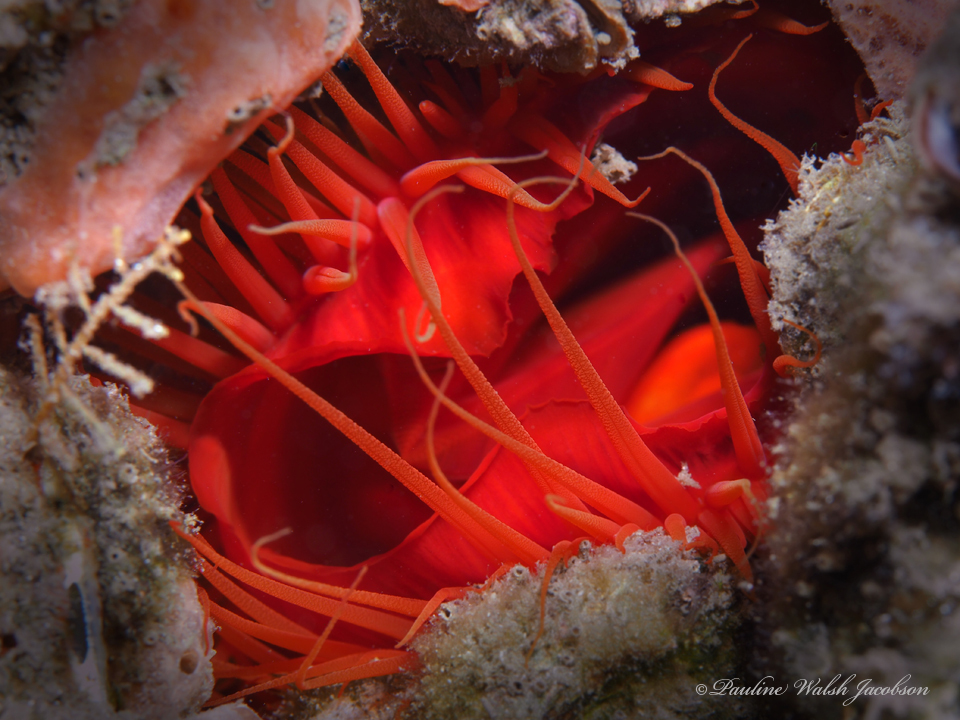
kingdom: Animalia
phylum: Mollusca
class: Bivalvia
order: Limida
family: Limidae
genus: Ctenoides
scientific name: Ctenoides scaber
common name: Rough fileclam
